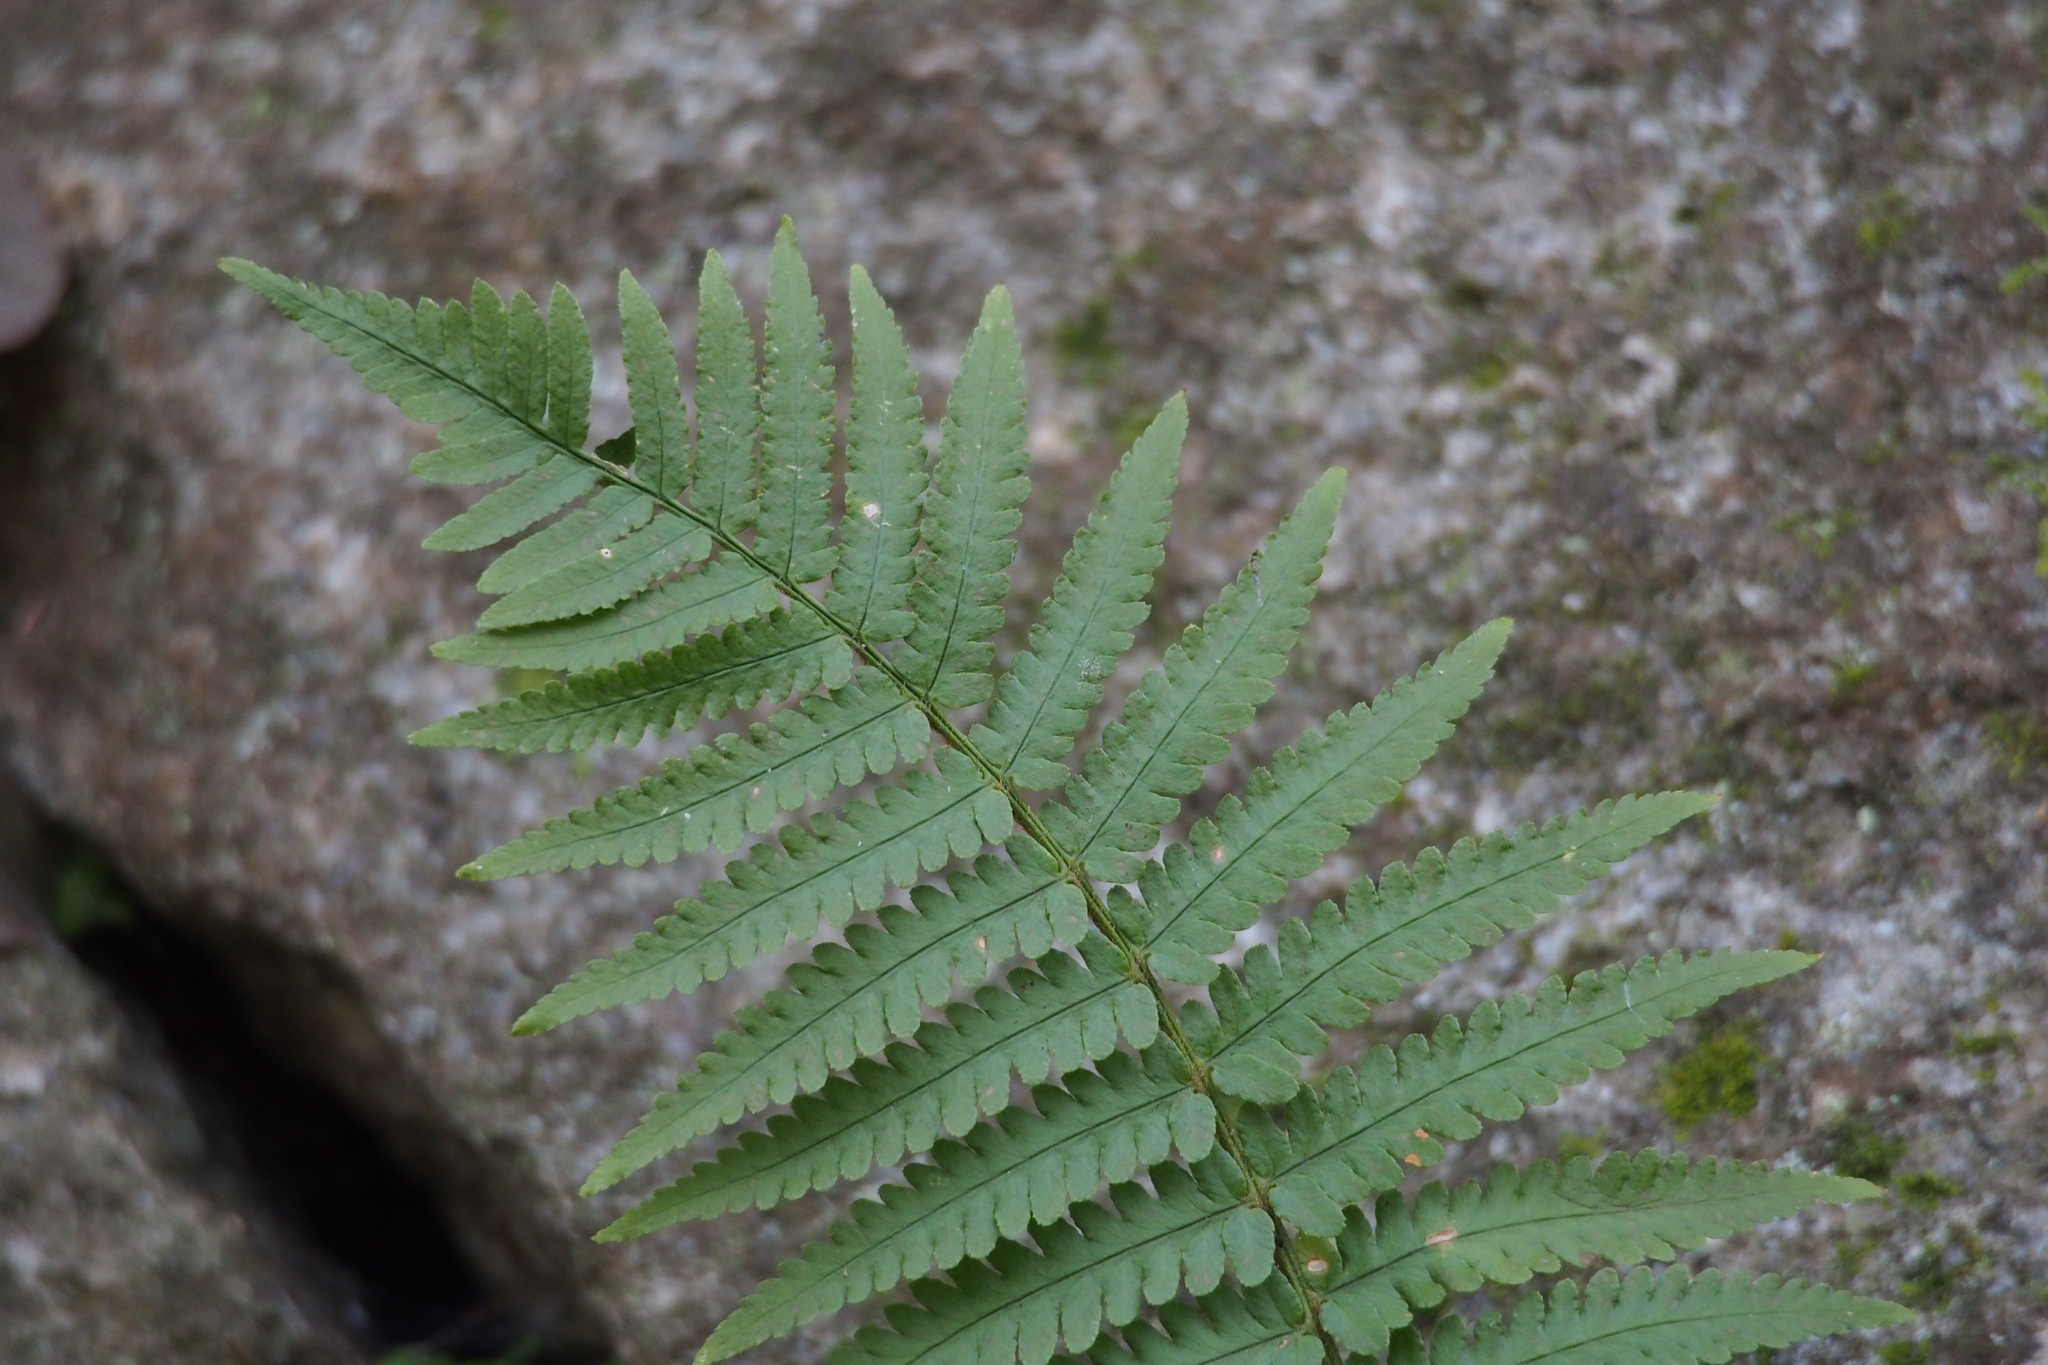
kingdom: Plantae
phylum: Tracheophyta
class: Polypodiopsida
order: Polypodiales
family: Dryopteridaceae
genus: Dryopteris
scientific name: Dryopteris uniformis
